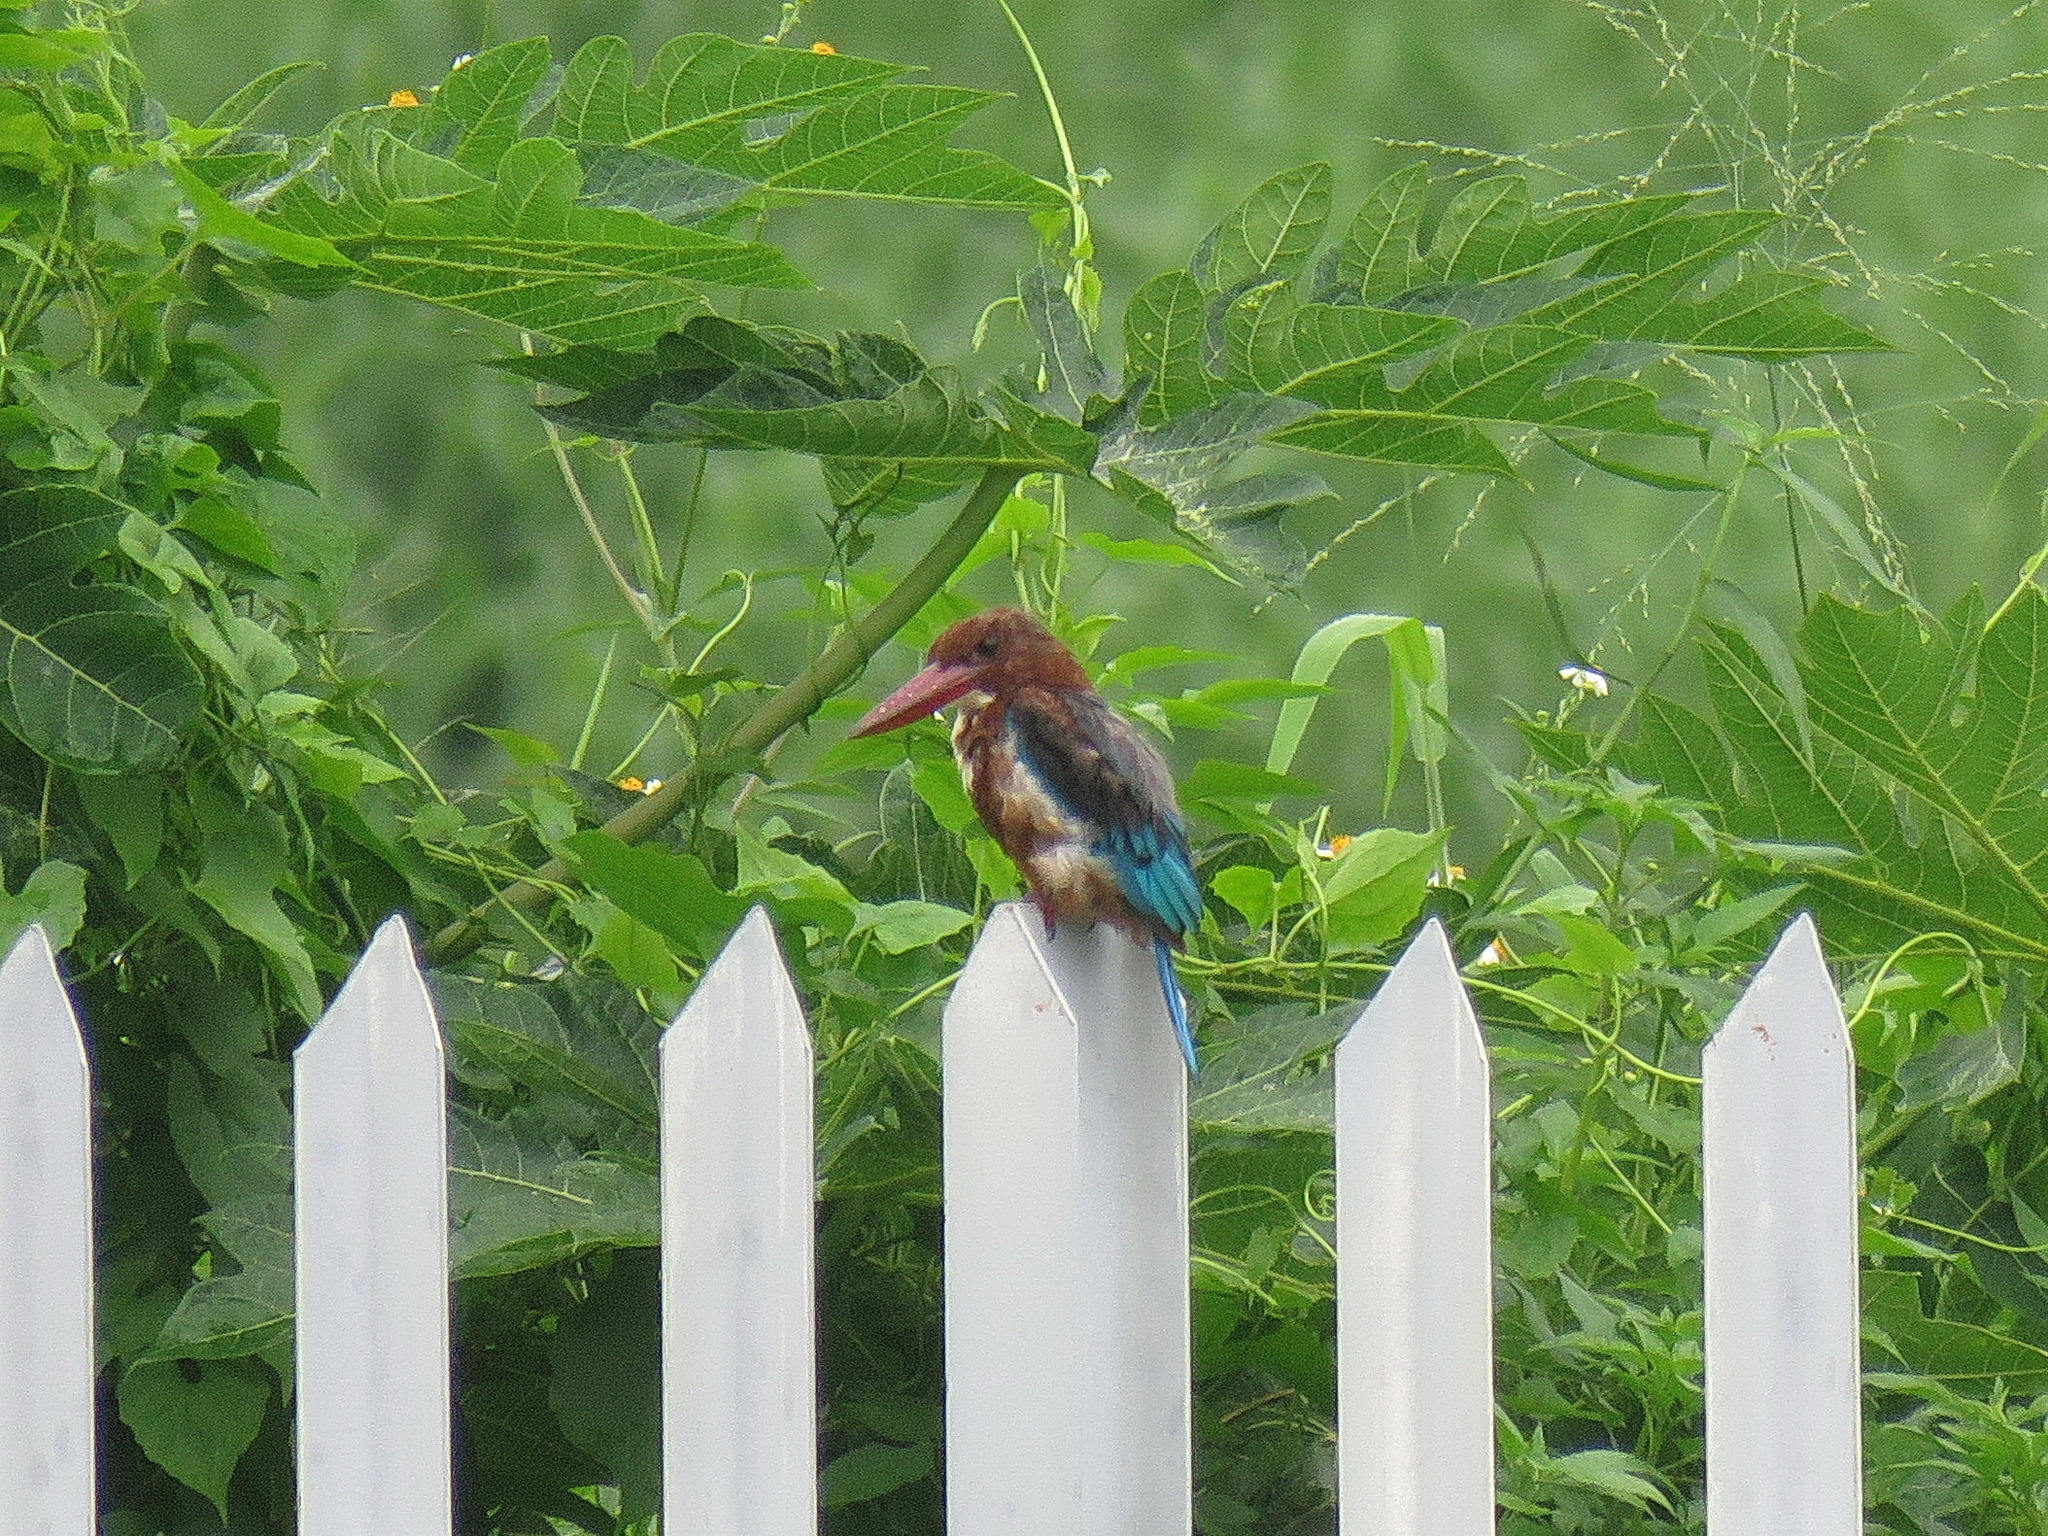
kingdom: Animalia
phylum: Chordata
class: Aves
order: Coraciiformes
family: Alcedinidae
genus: Halcyon
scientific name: Halcyon smyrnensis
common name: White-throated kingfisher
